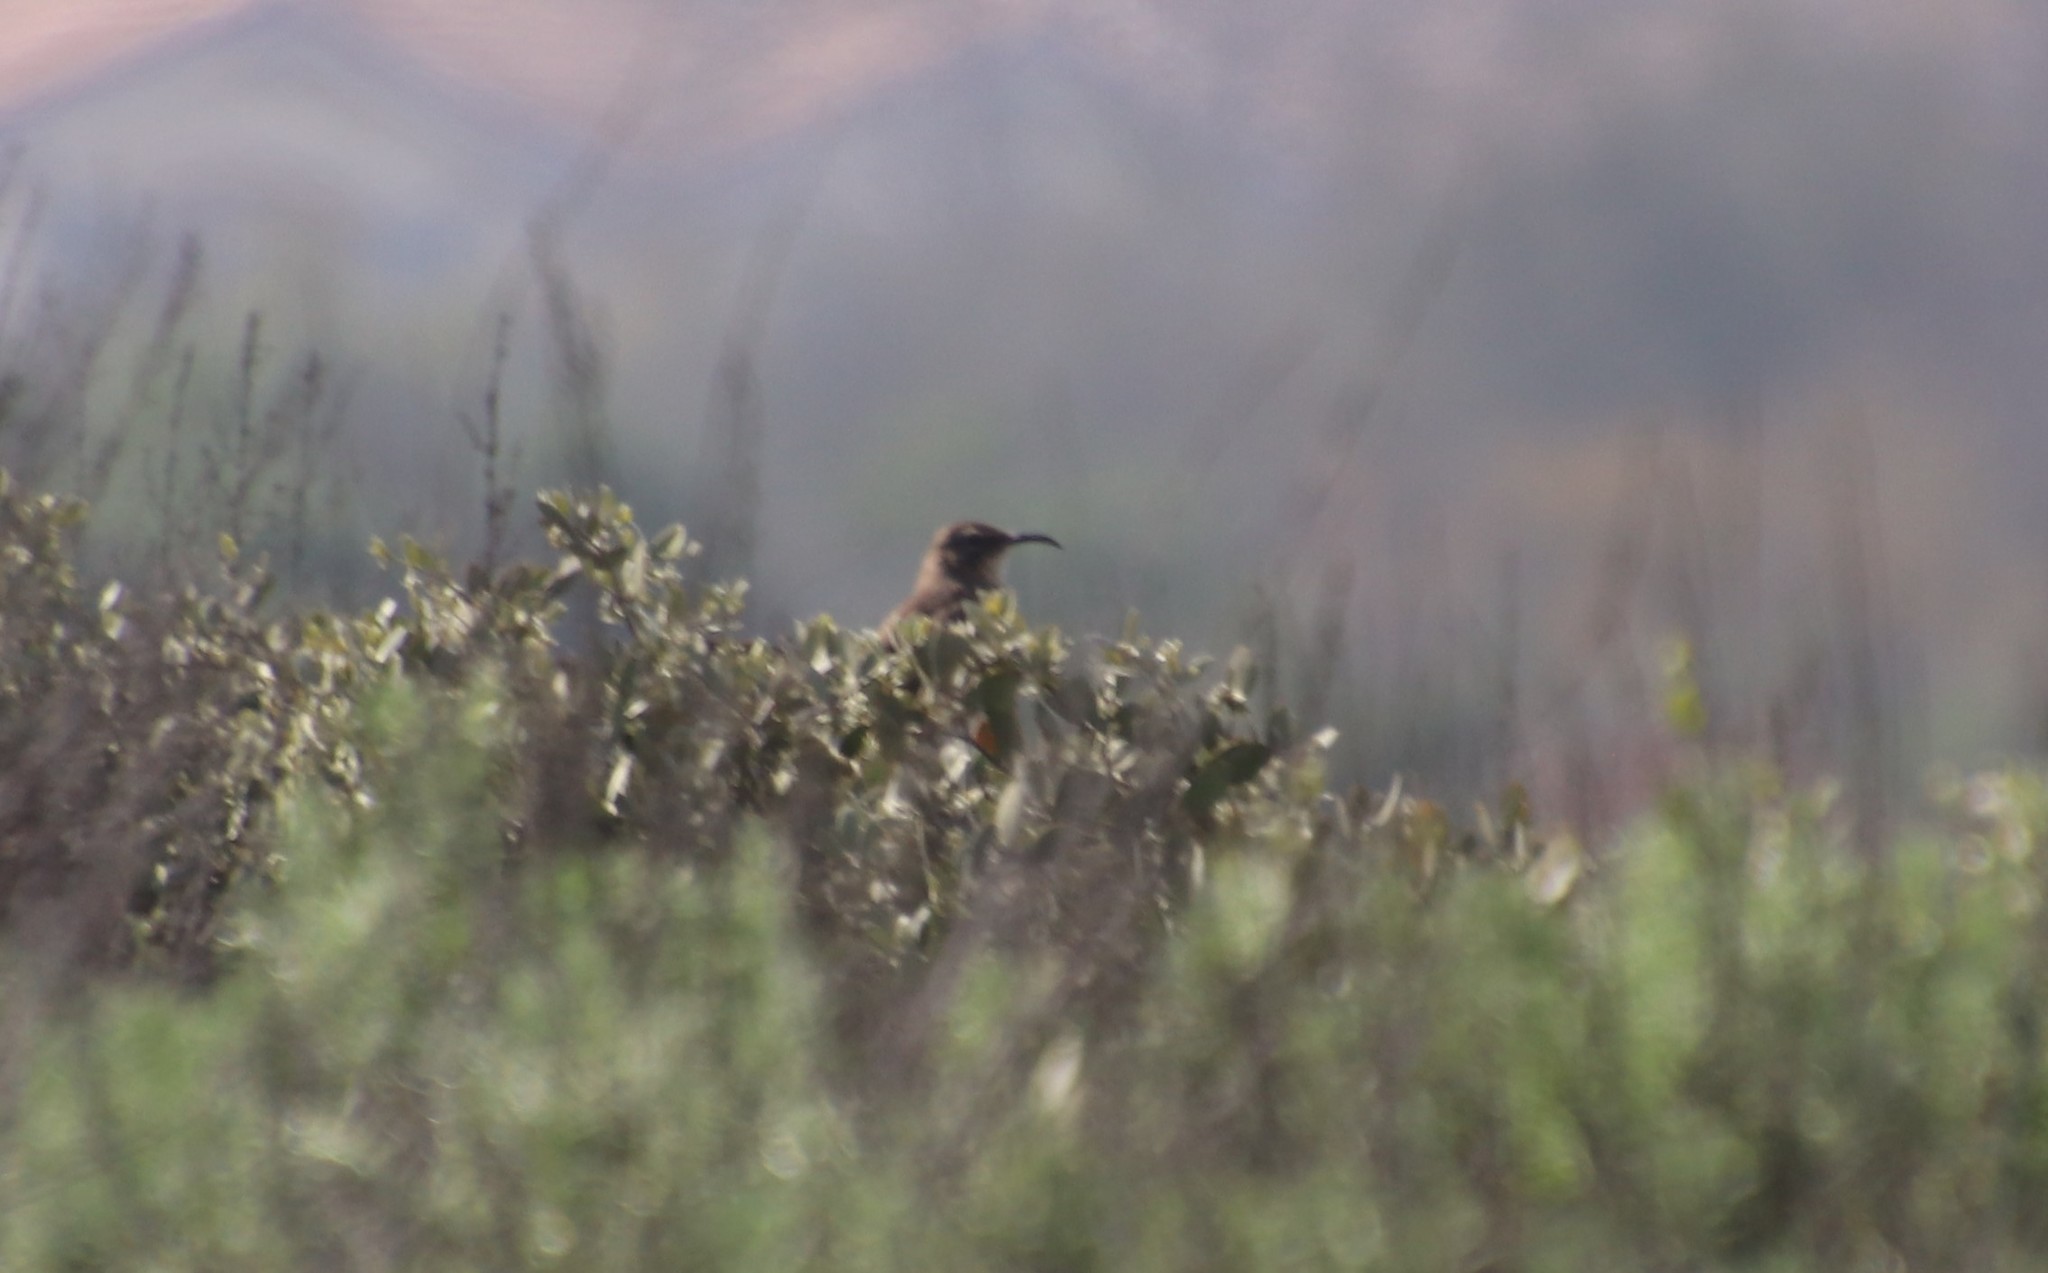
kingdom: Animalia
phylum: Chordata
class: Aves
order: Passeriformes
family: Mimidae
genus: Toxostoma
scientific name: Toxostoma redivivum
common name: California thrasher
